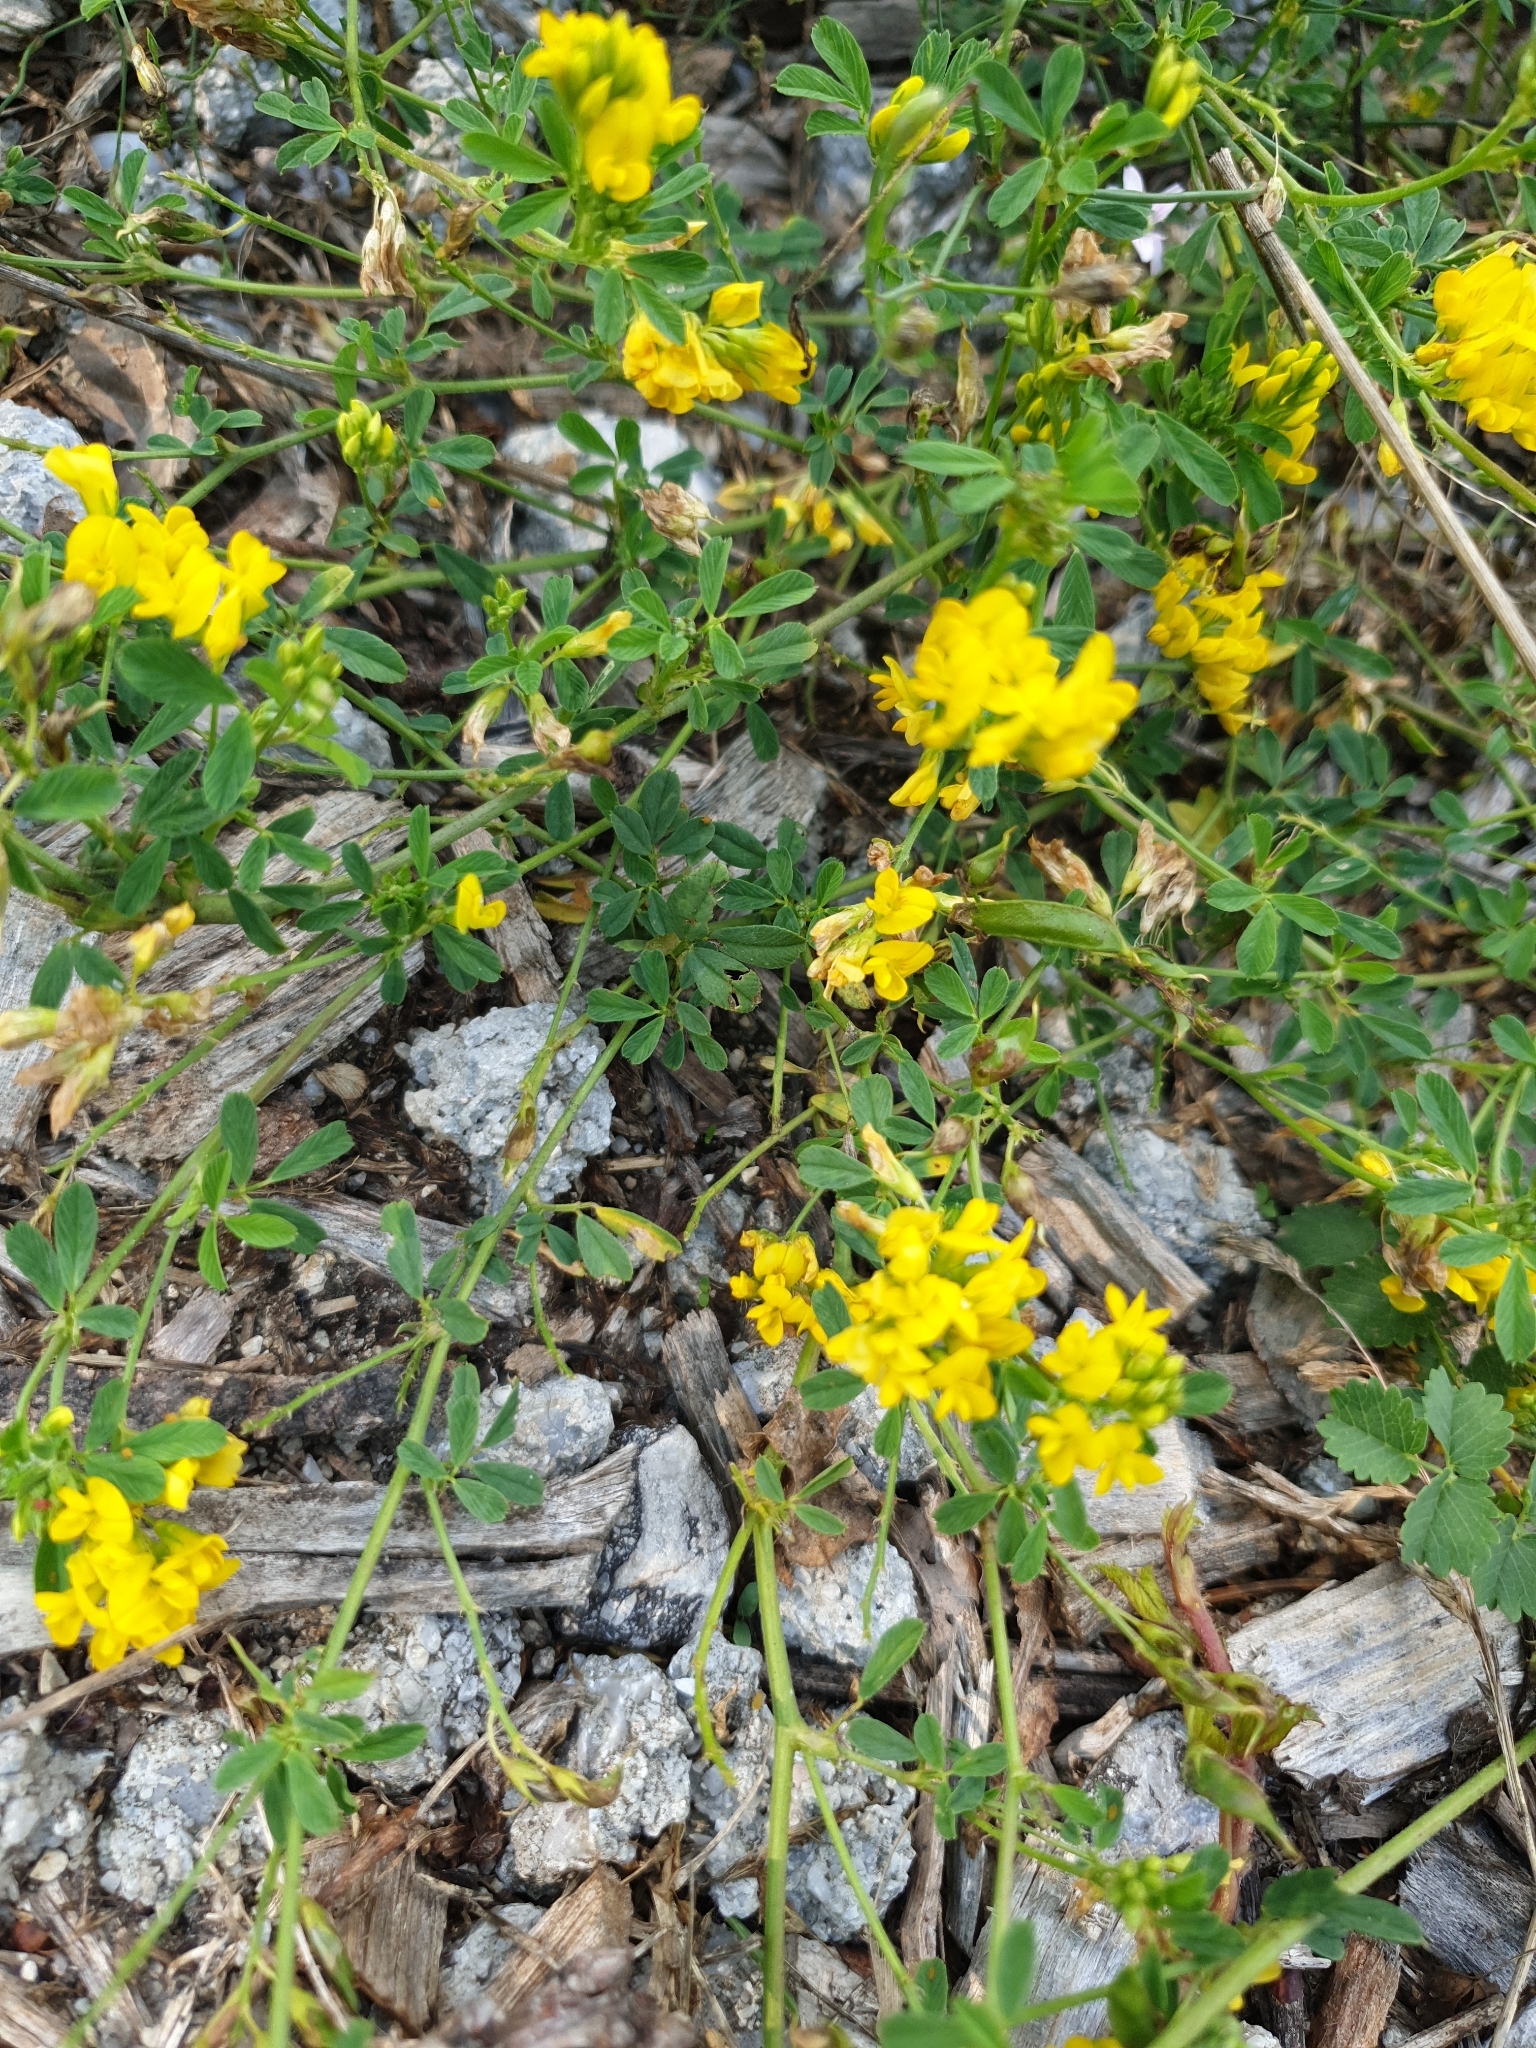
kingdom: Plantae
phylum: Tracheophyta
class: Magnoliopsida
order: Fabales
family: Fabaceae
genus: Medicago
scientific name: Medicago falcata
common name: Sickle medick
